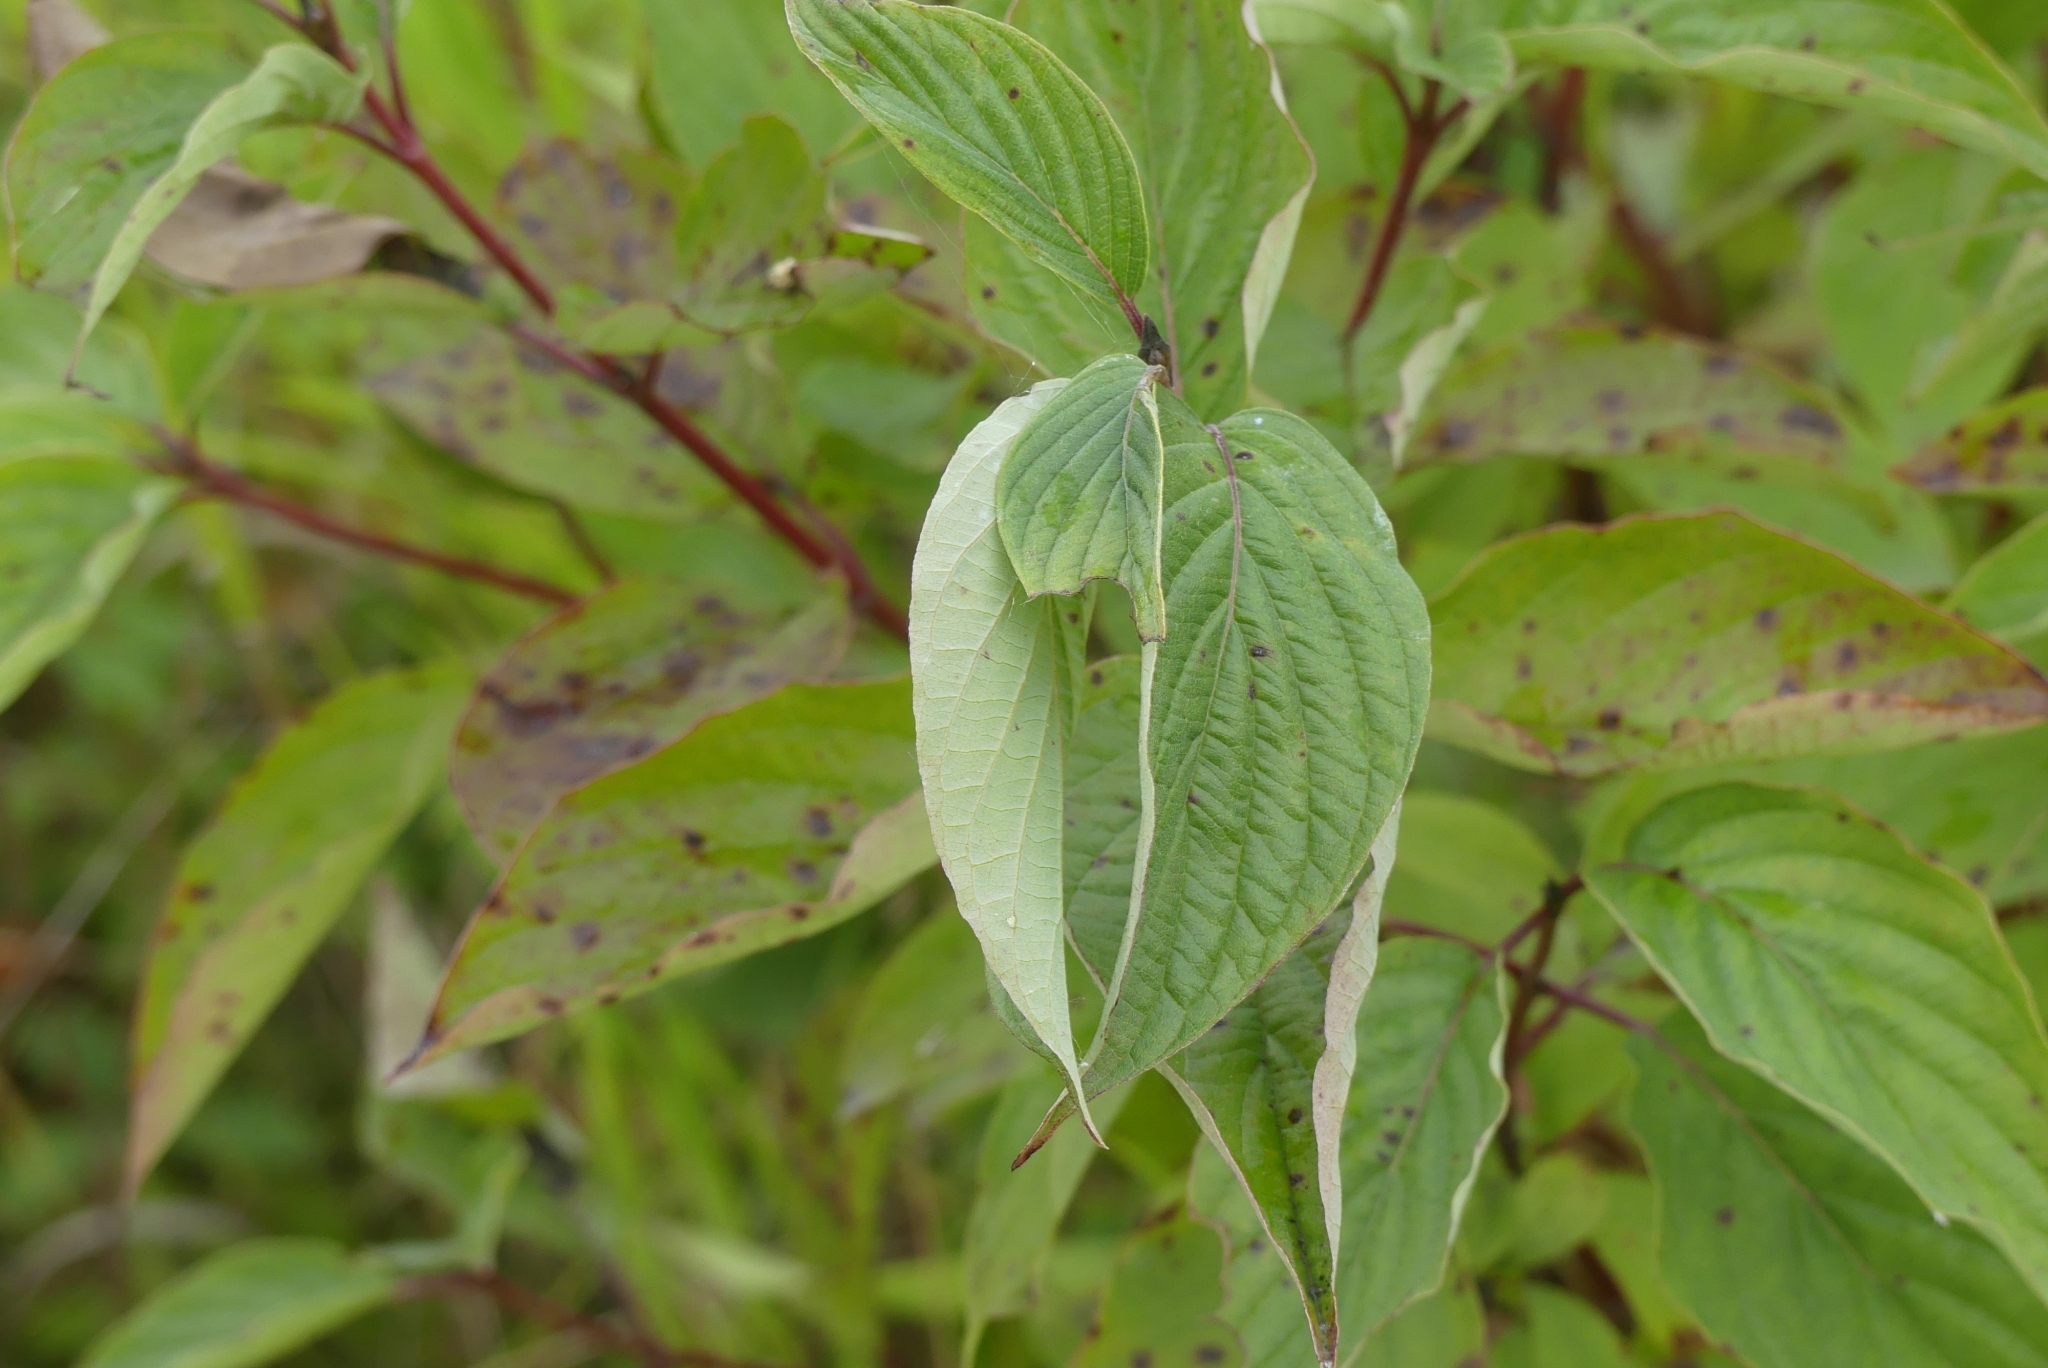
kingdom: Plantae
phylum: Tracheophyta
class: Magnoliopsida
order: Cornales
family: Cornaceae
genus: Cornus
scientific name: Cornus sericea
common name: Red-osier dogwood
